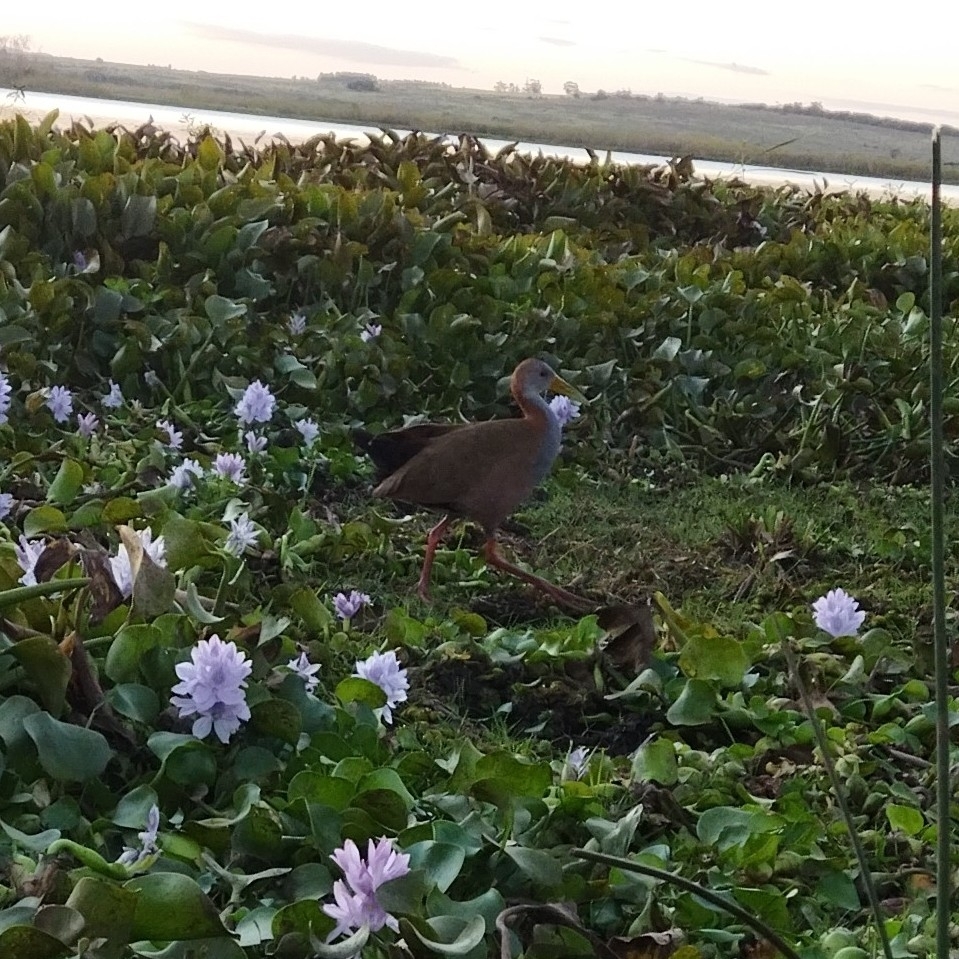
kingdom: Animalia
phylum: Chordata
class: Aves
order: Gruiformes
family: Rallidae
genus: Aramides
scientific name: Aramides ypecaha
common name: Giant wood rail
